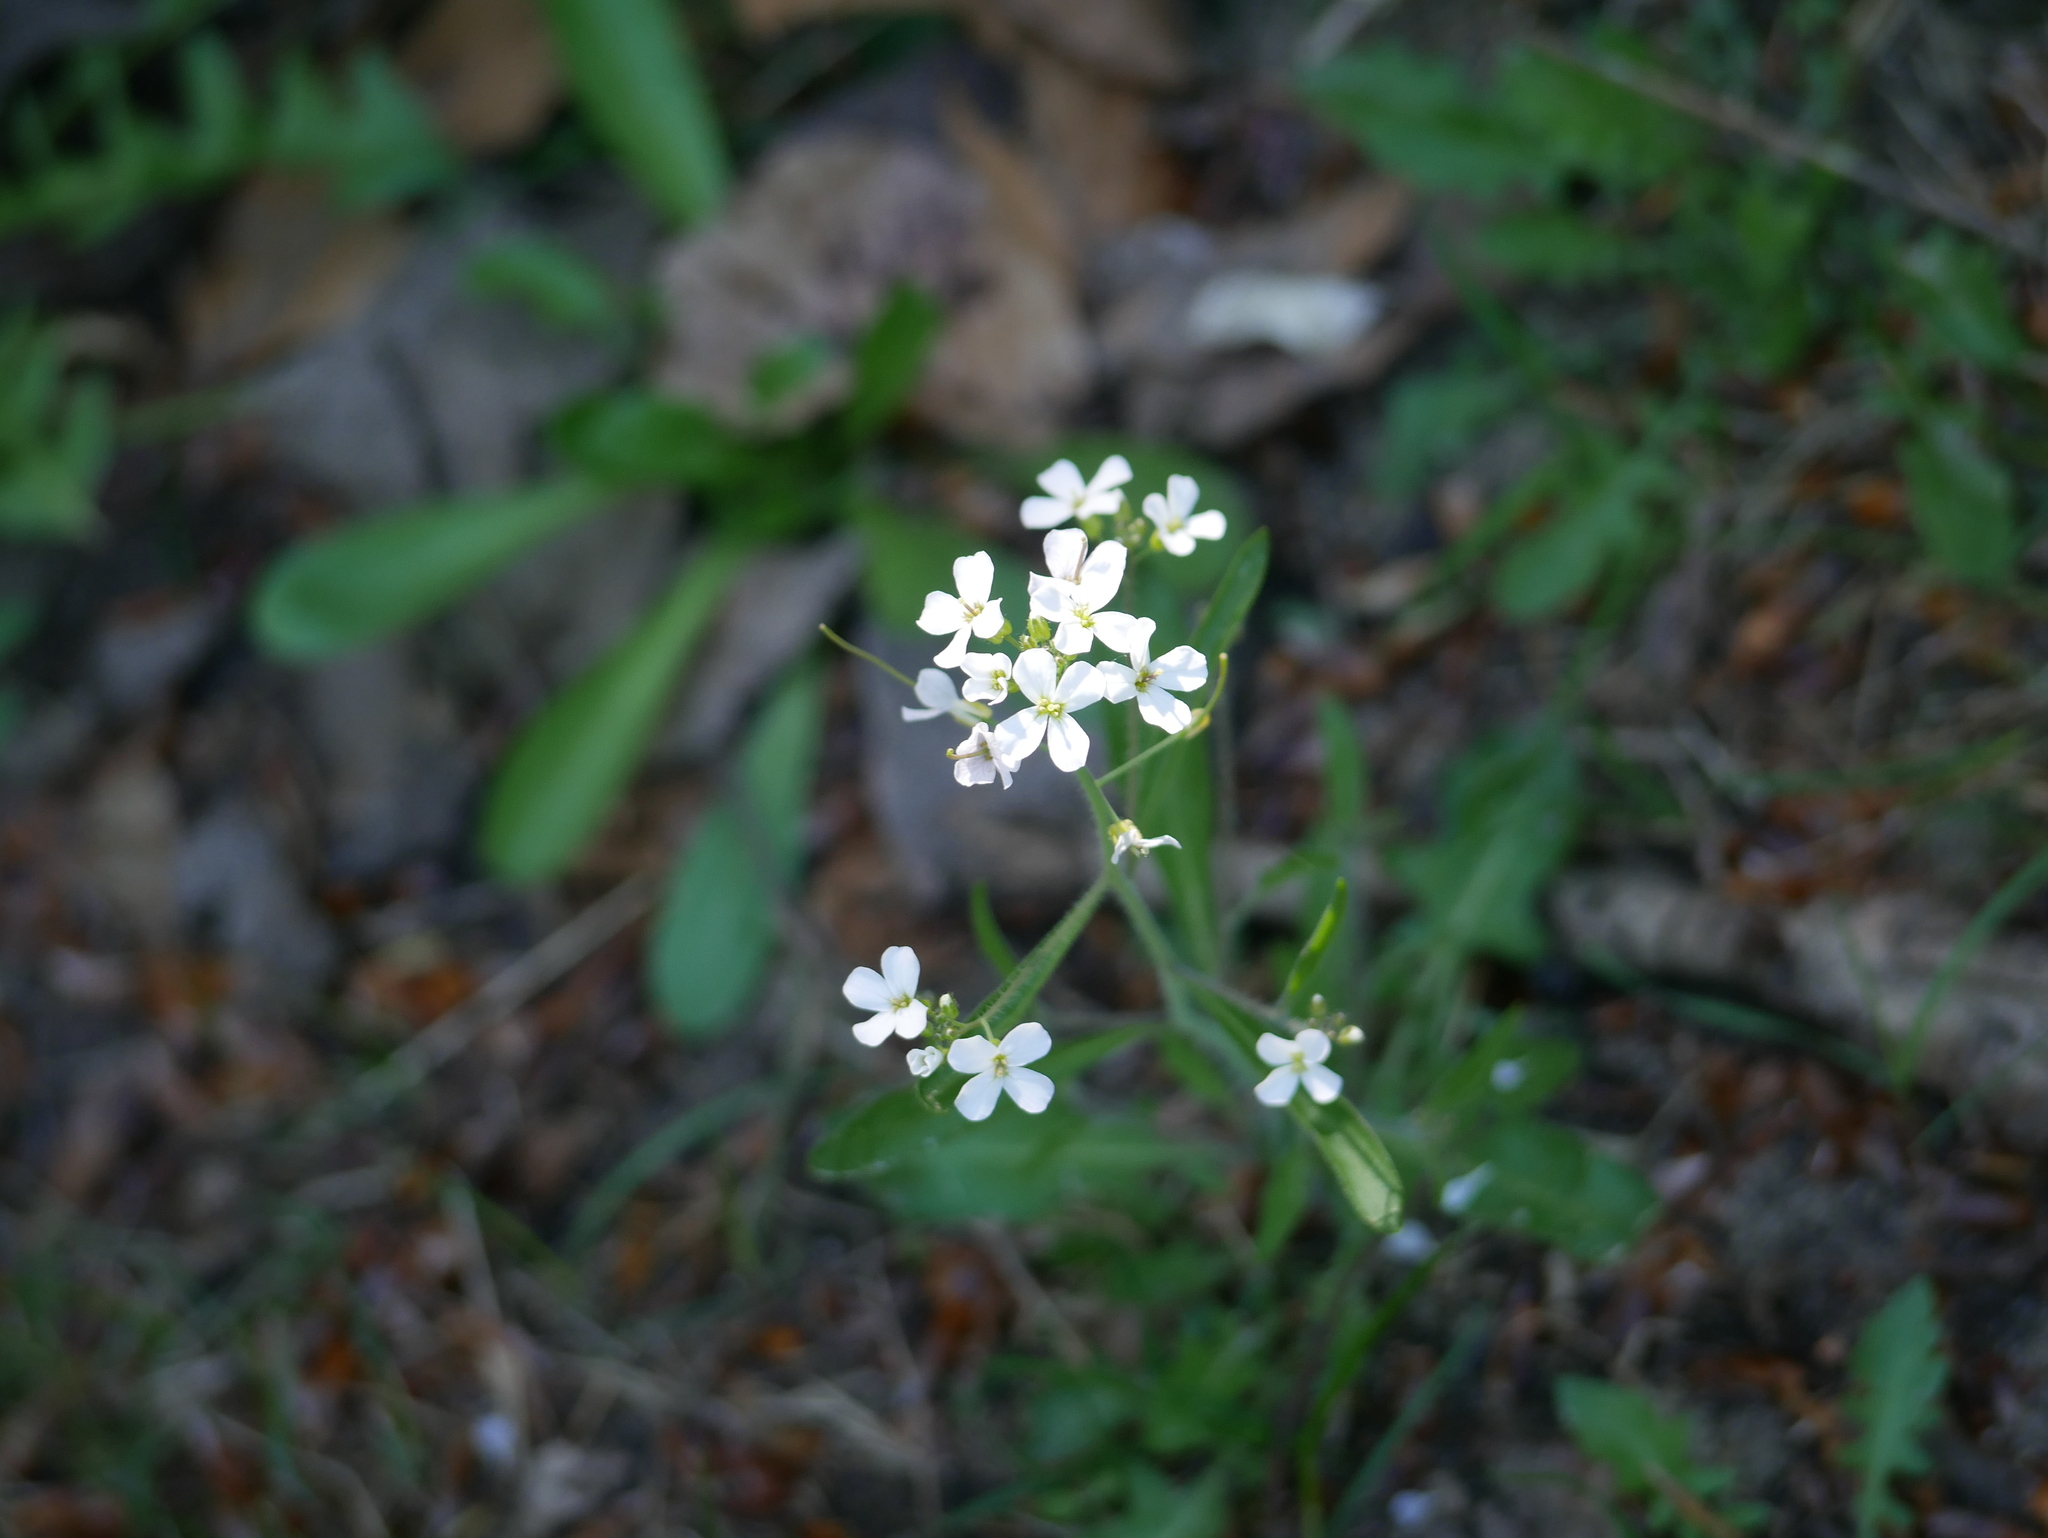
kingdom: Plantae
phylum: Tracheophyta
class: Magnoliopsida
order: Brassicales
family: Brassicaceae
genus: Arabidopsis
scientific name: Arabidopsis arenosa
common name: Sand rock-cress
